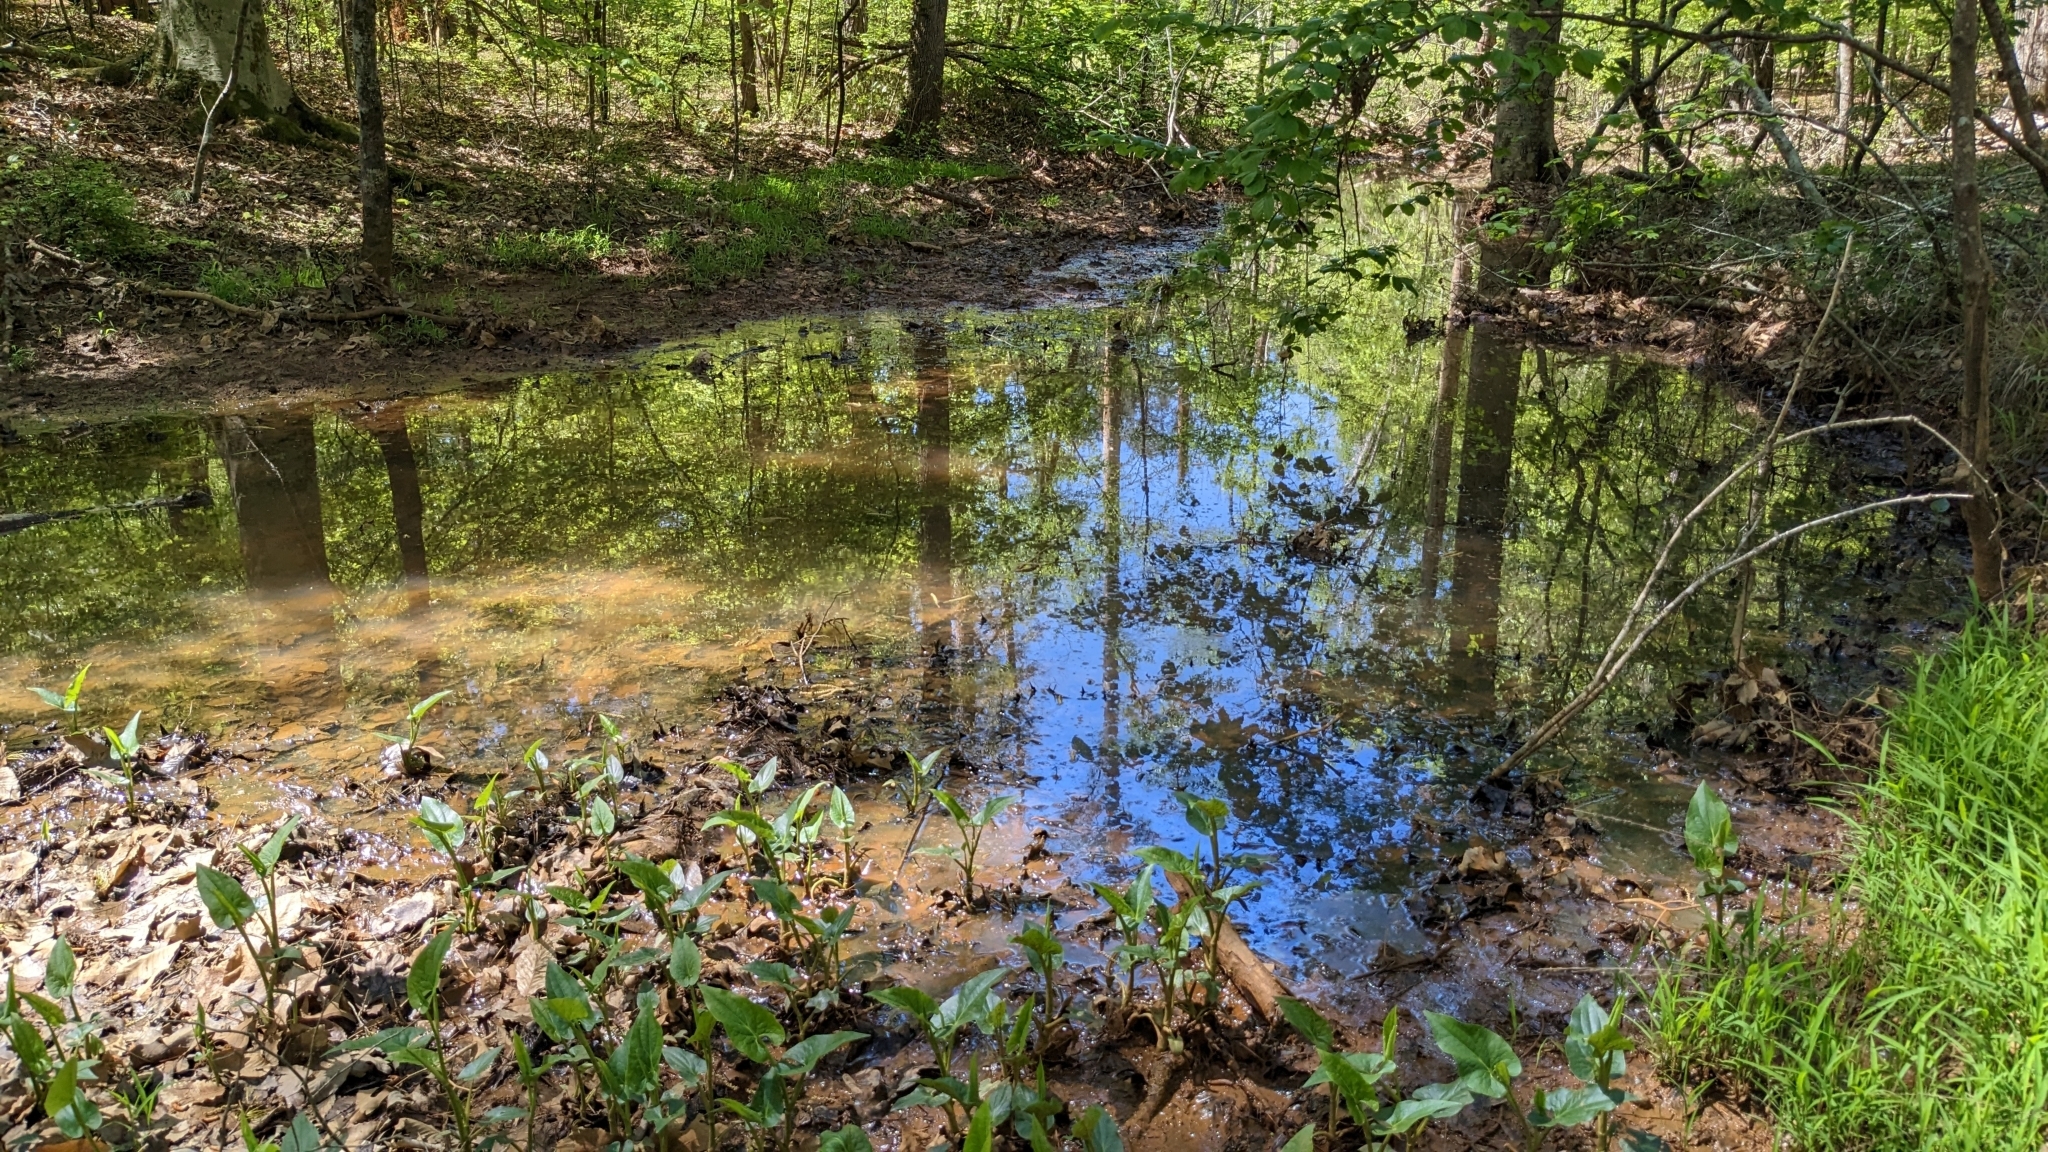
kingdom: Plantae
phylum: Tracheophyta
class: Magnoliopsida
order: Piperales
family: Saururaceae
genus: Saururus
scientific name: Saururus cernuus
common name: Lizard's-tail
